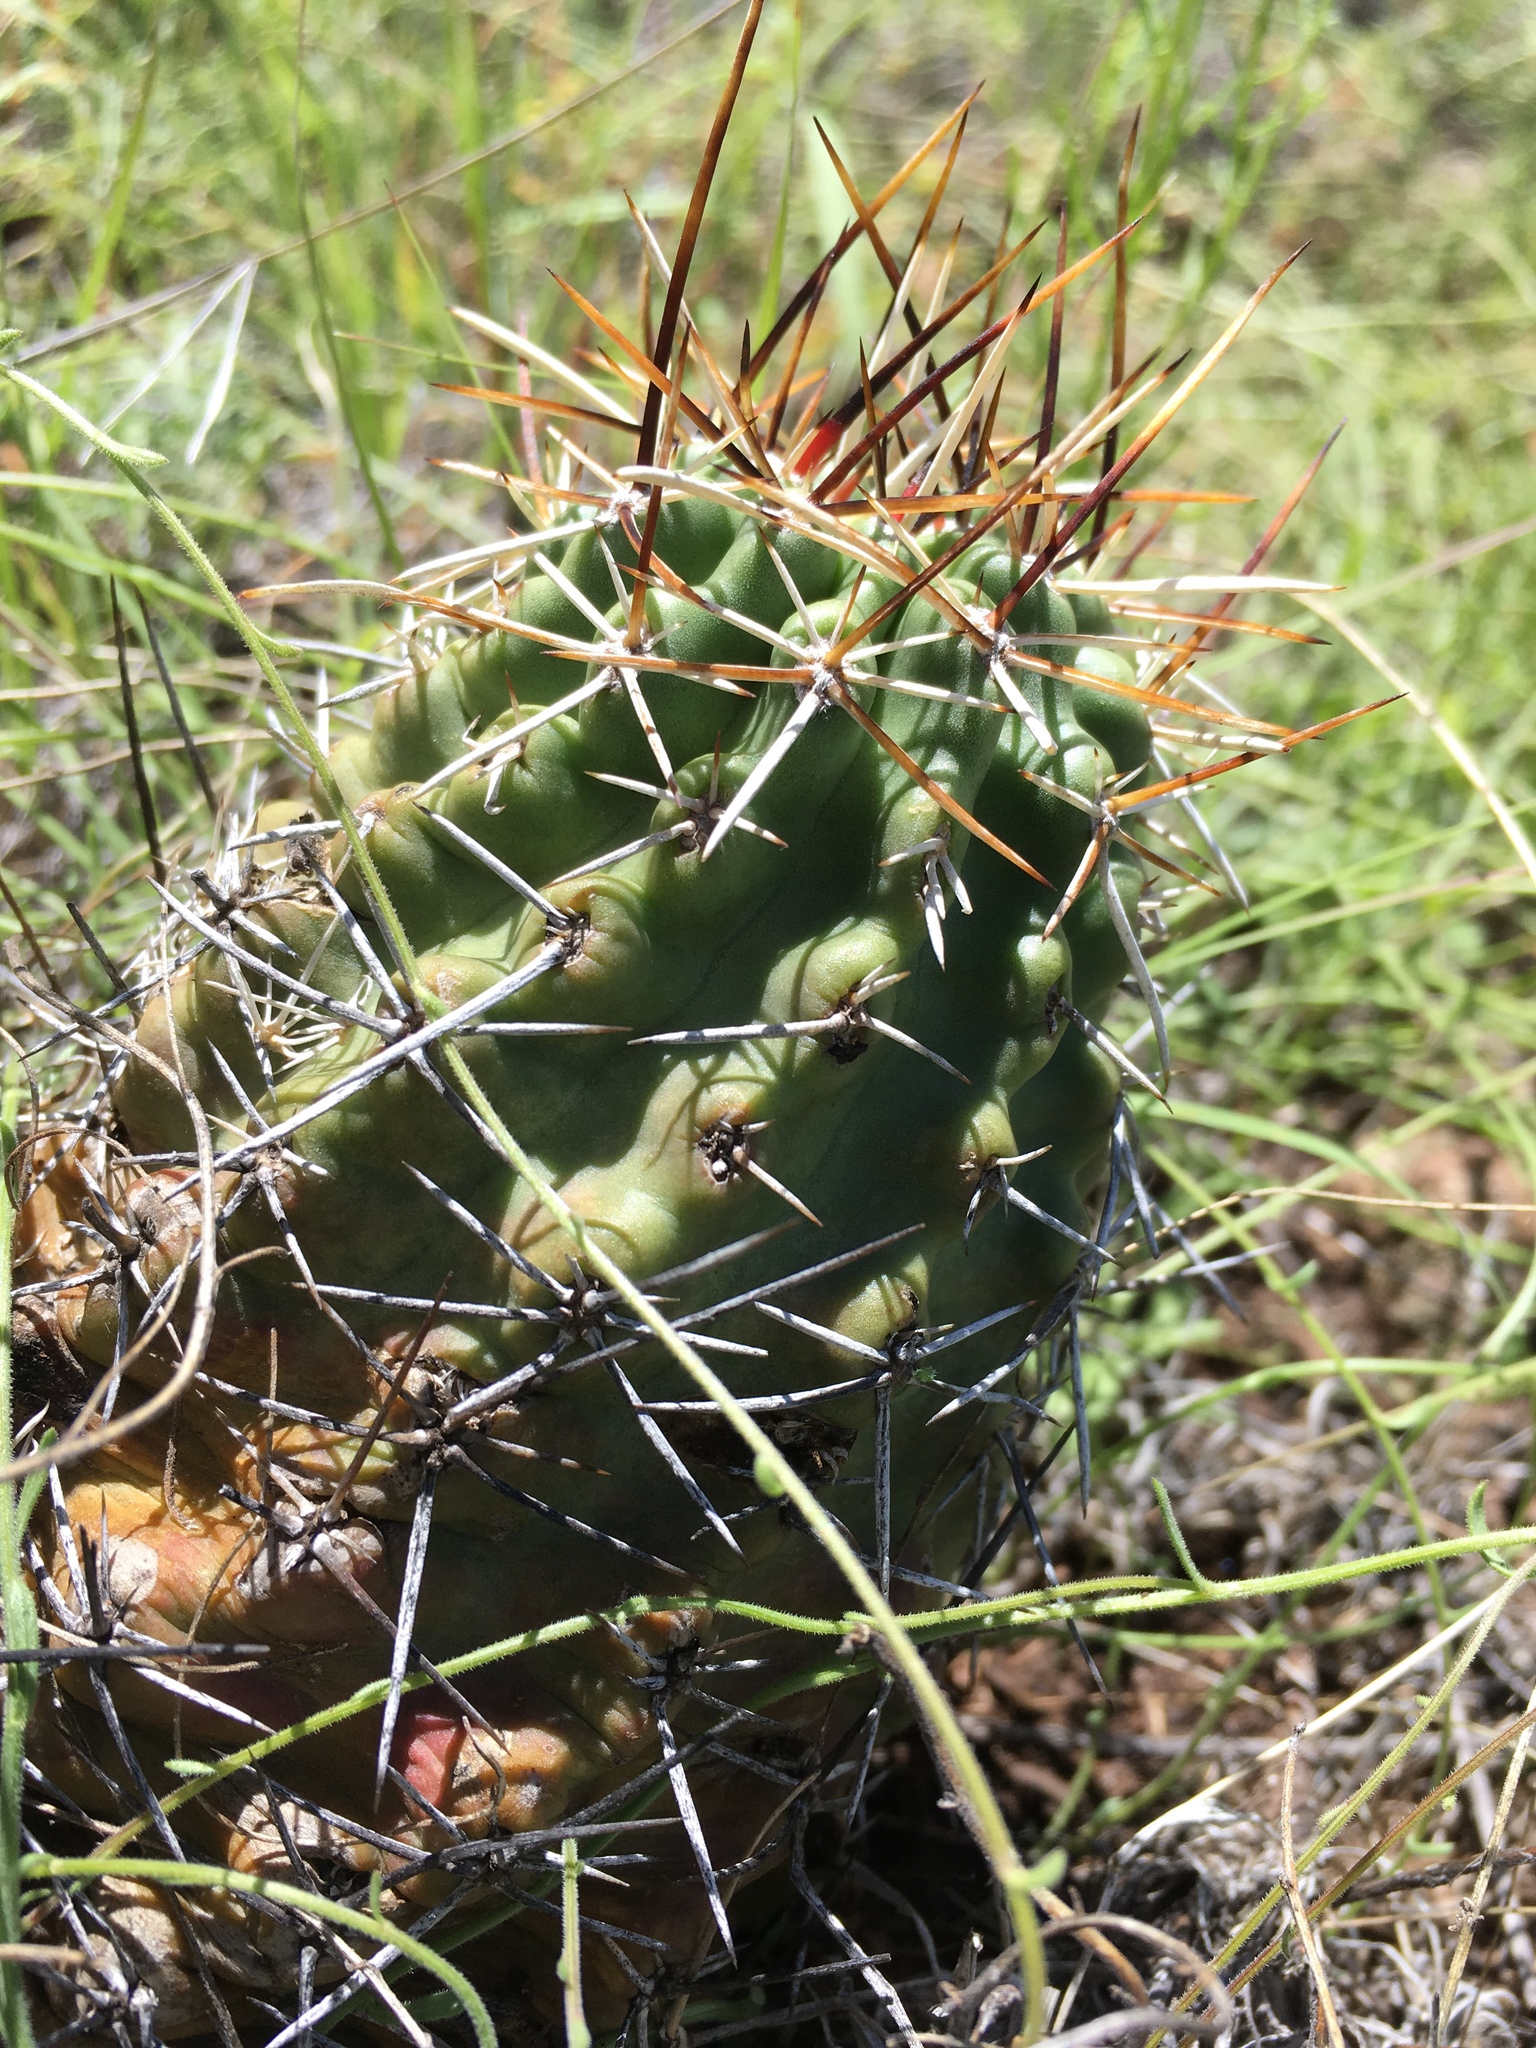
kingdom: Plantae
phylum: Tracheophyta
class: Magnoliopsida
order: Caryophyllales
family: Cactaceae
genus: Echinocereus
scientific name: Echinocereus fendleri
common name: Fendler's hedgehog cactus
